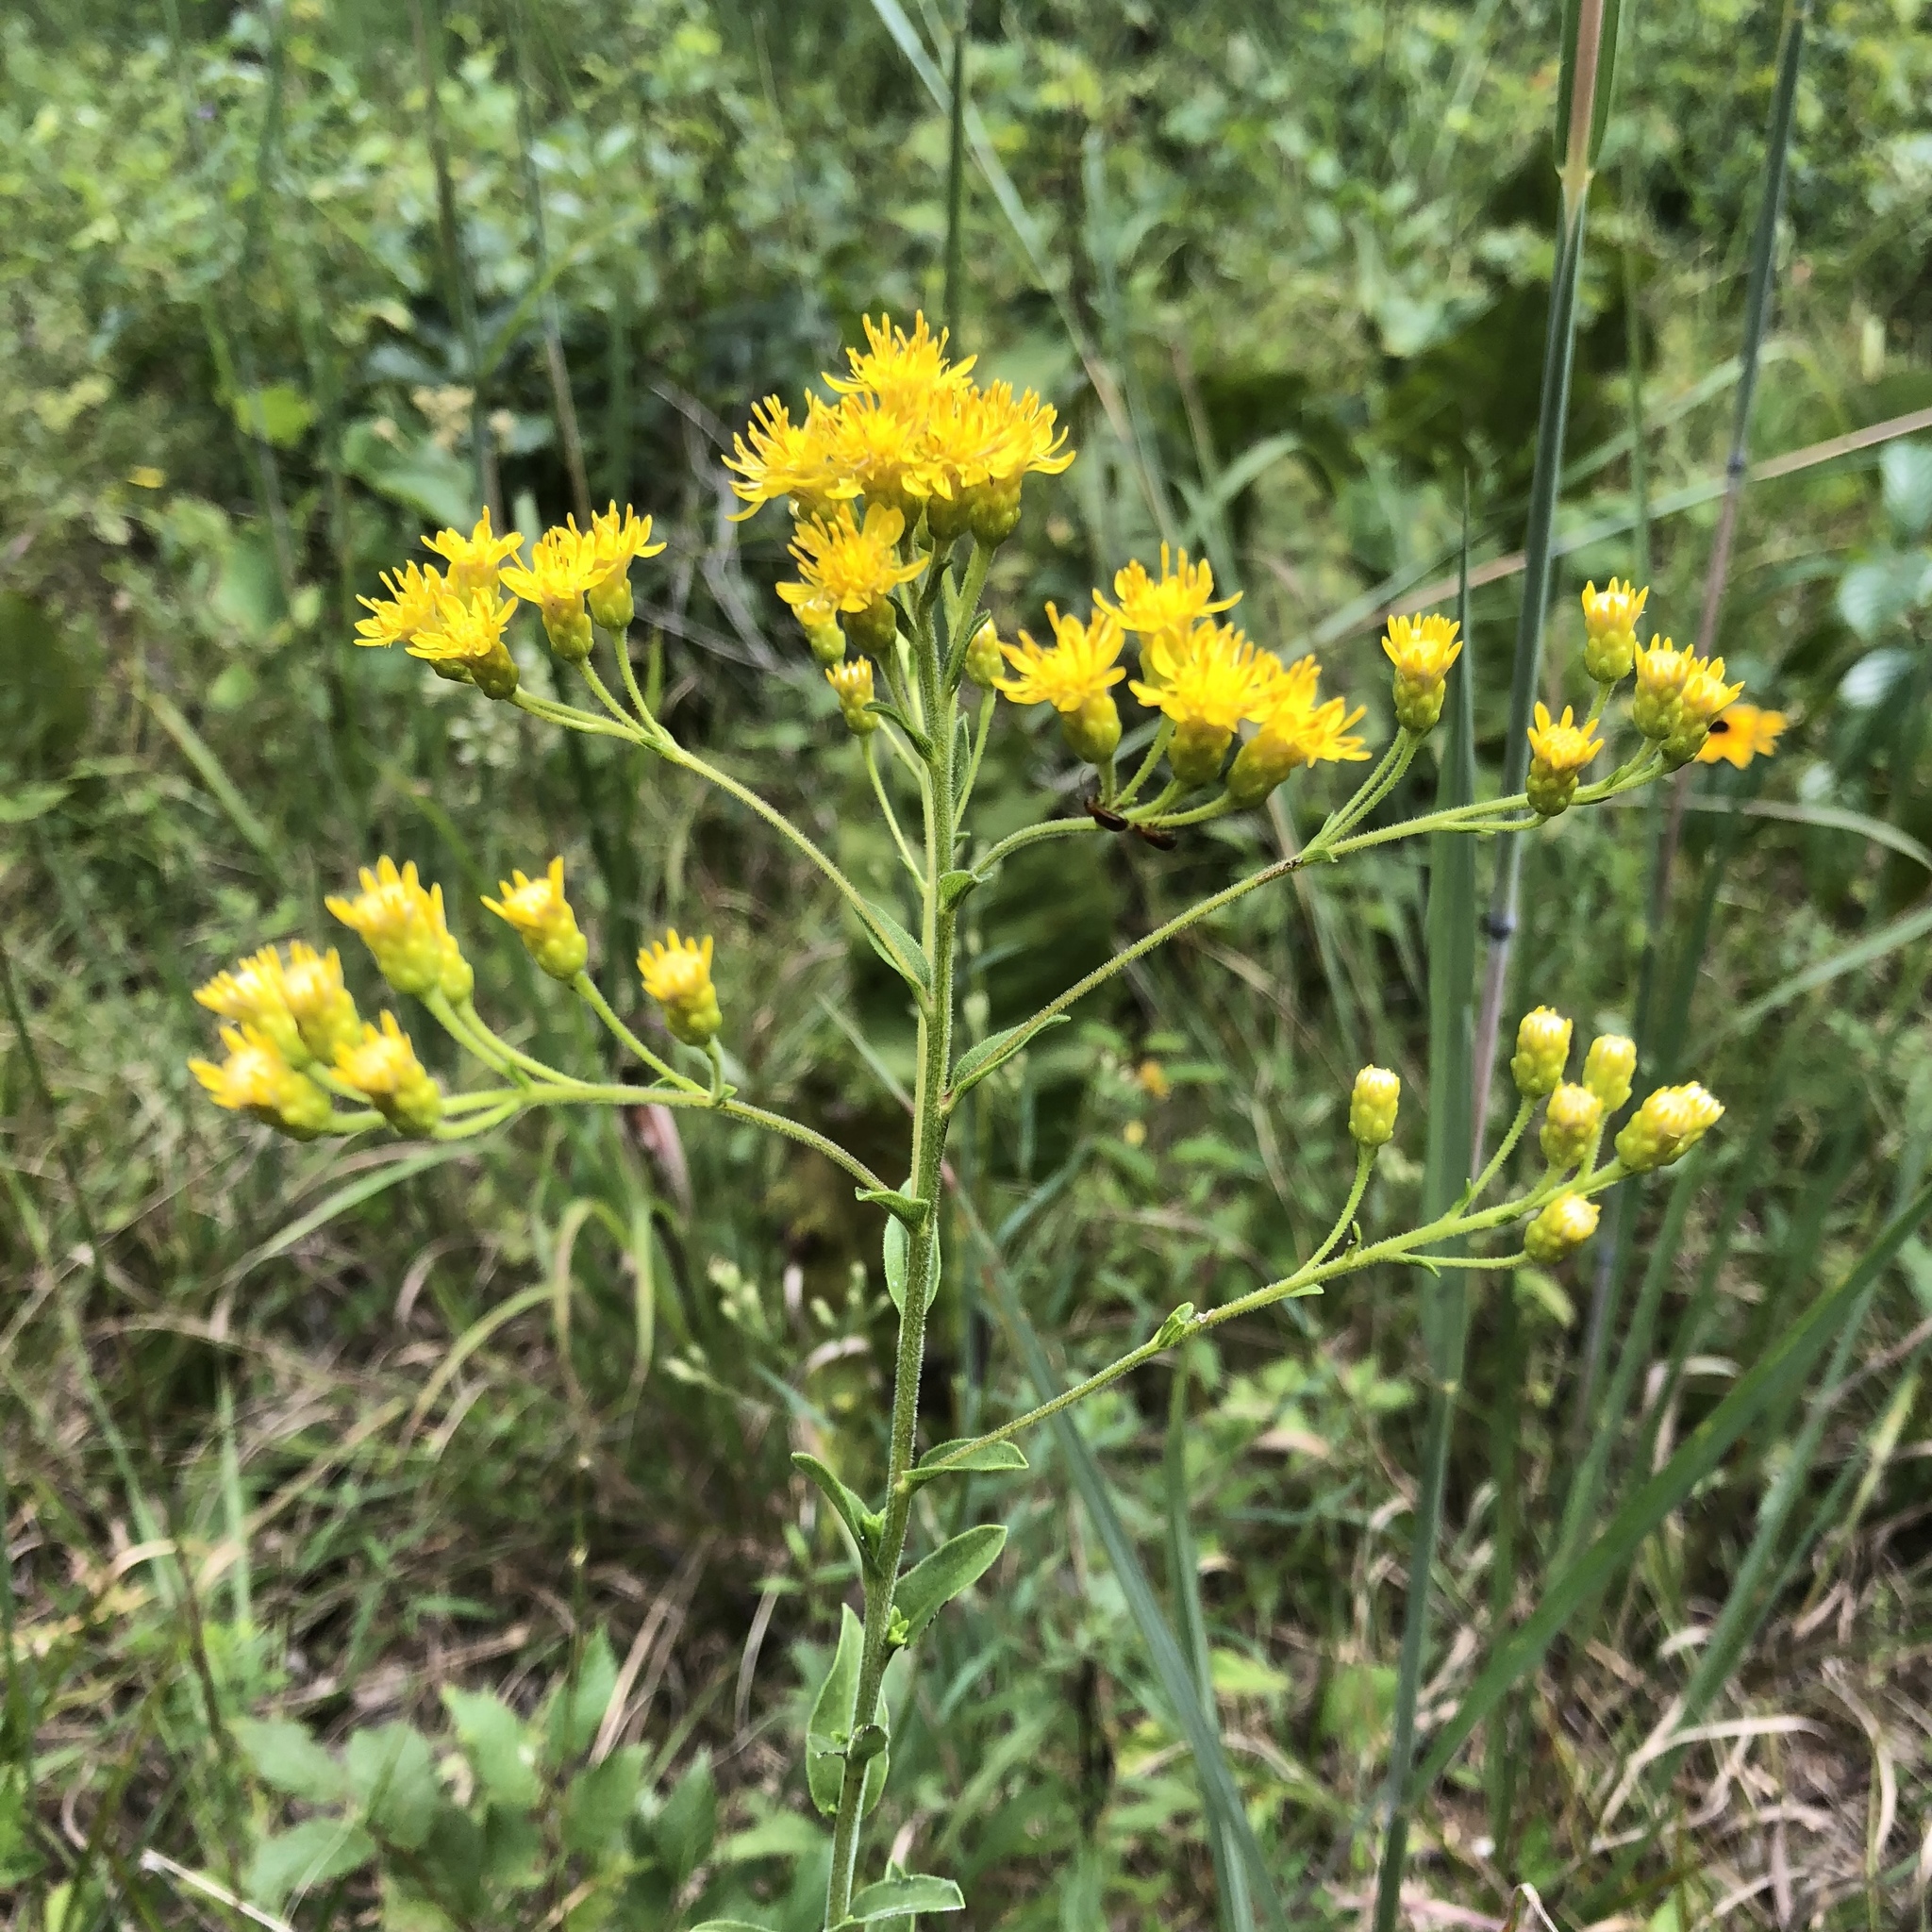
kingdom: Plantae
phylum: Tracheophyta
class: Magnoliopsida
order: Asterales
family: Asteraceae
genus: Solidago
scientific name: Solidago rigida
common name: Rigid goldenrod
